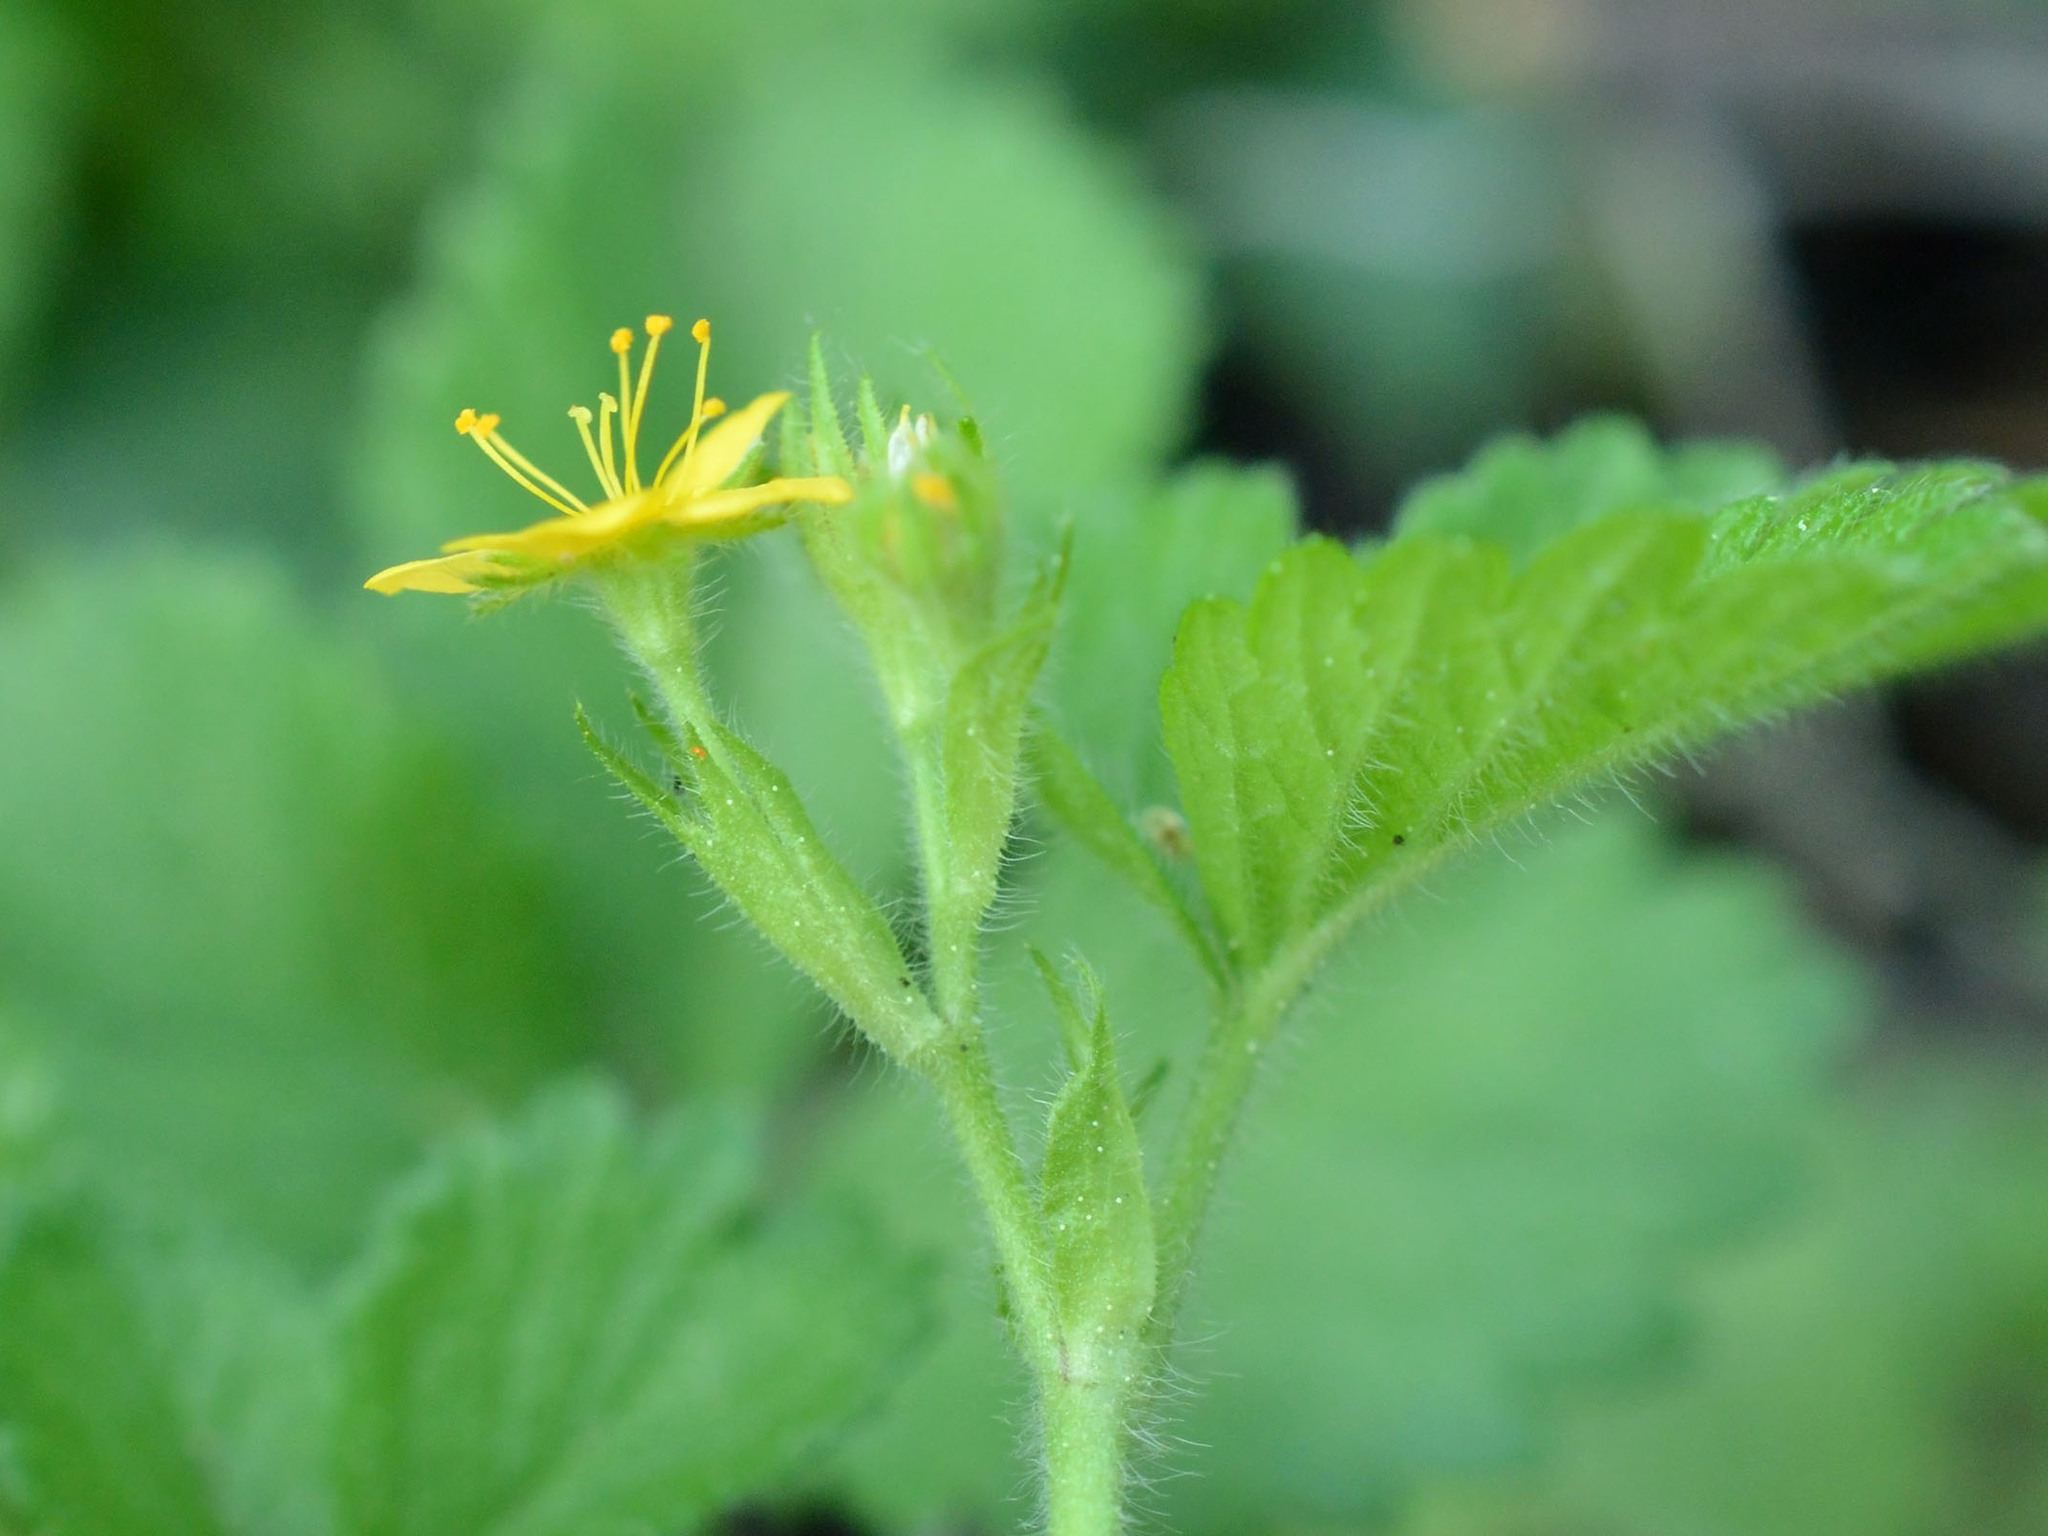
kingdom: Plantae
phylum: Tracheophyta
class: Magnoliopsida
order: Rosales
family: Rosaceae
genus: Aremonia
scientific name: Aremonia agrimonoides
